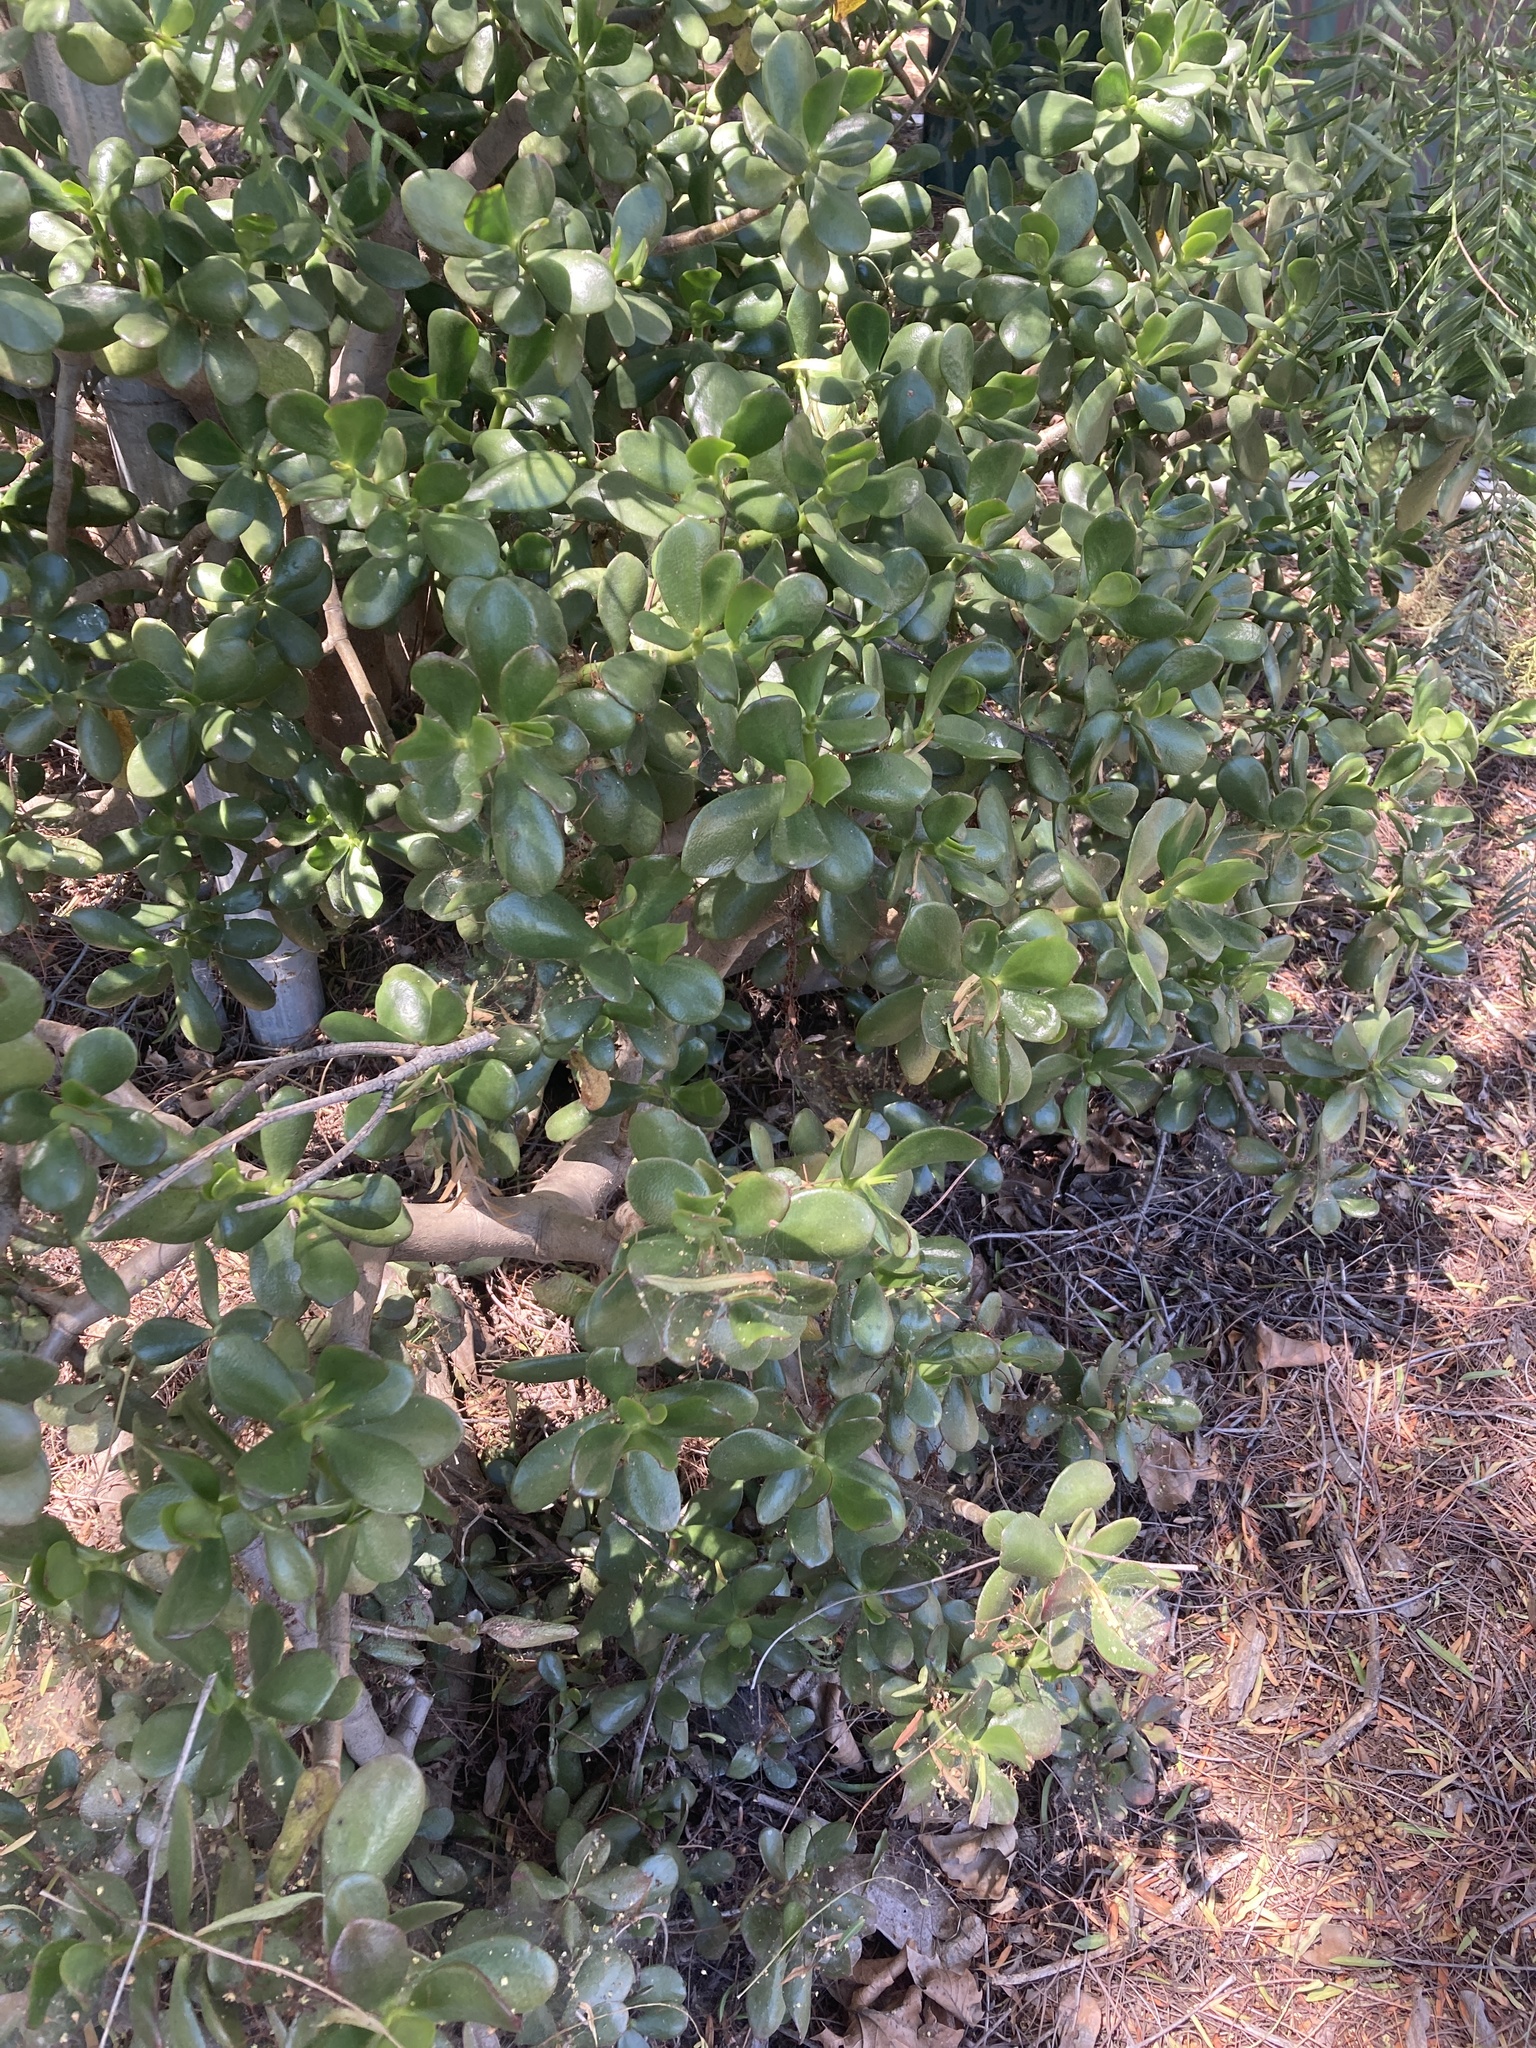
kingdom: Plantae
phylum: Tracheophyta
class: Magnoliopsida
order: Saxifragales
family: Crassulaceae
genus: Crassula
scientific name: Crassula ovata
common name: Jade plant
